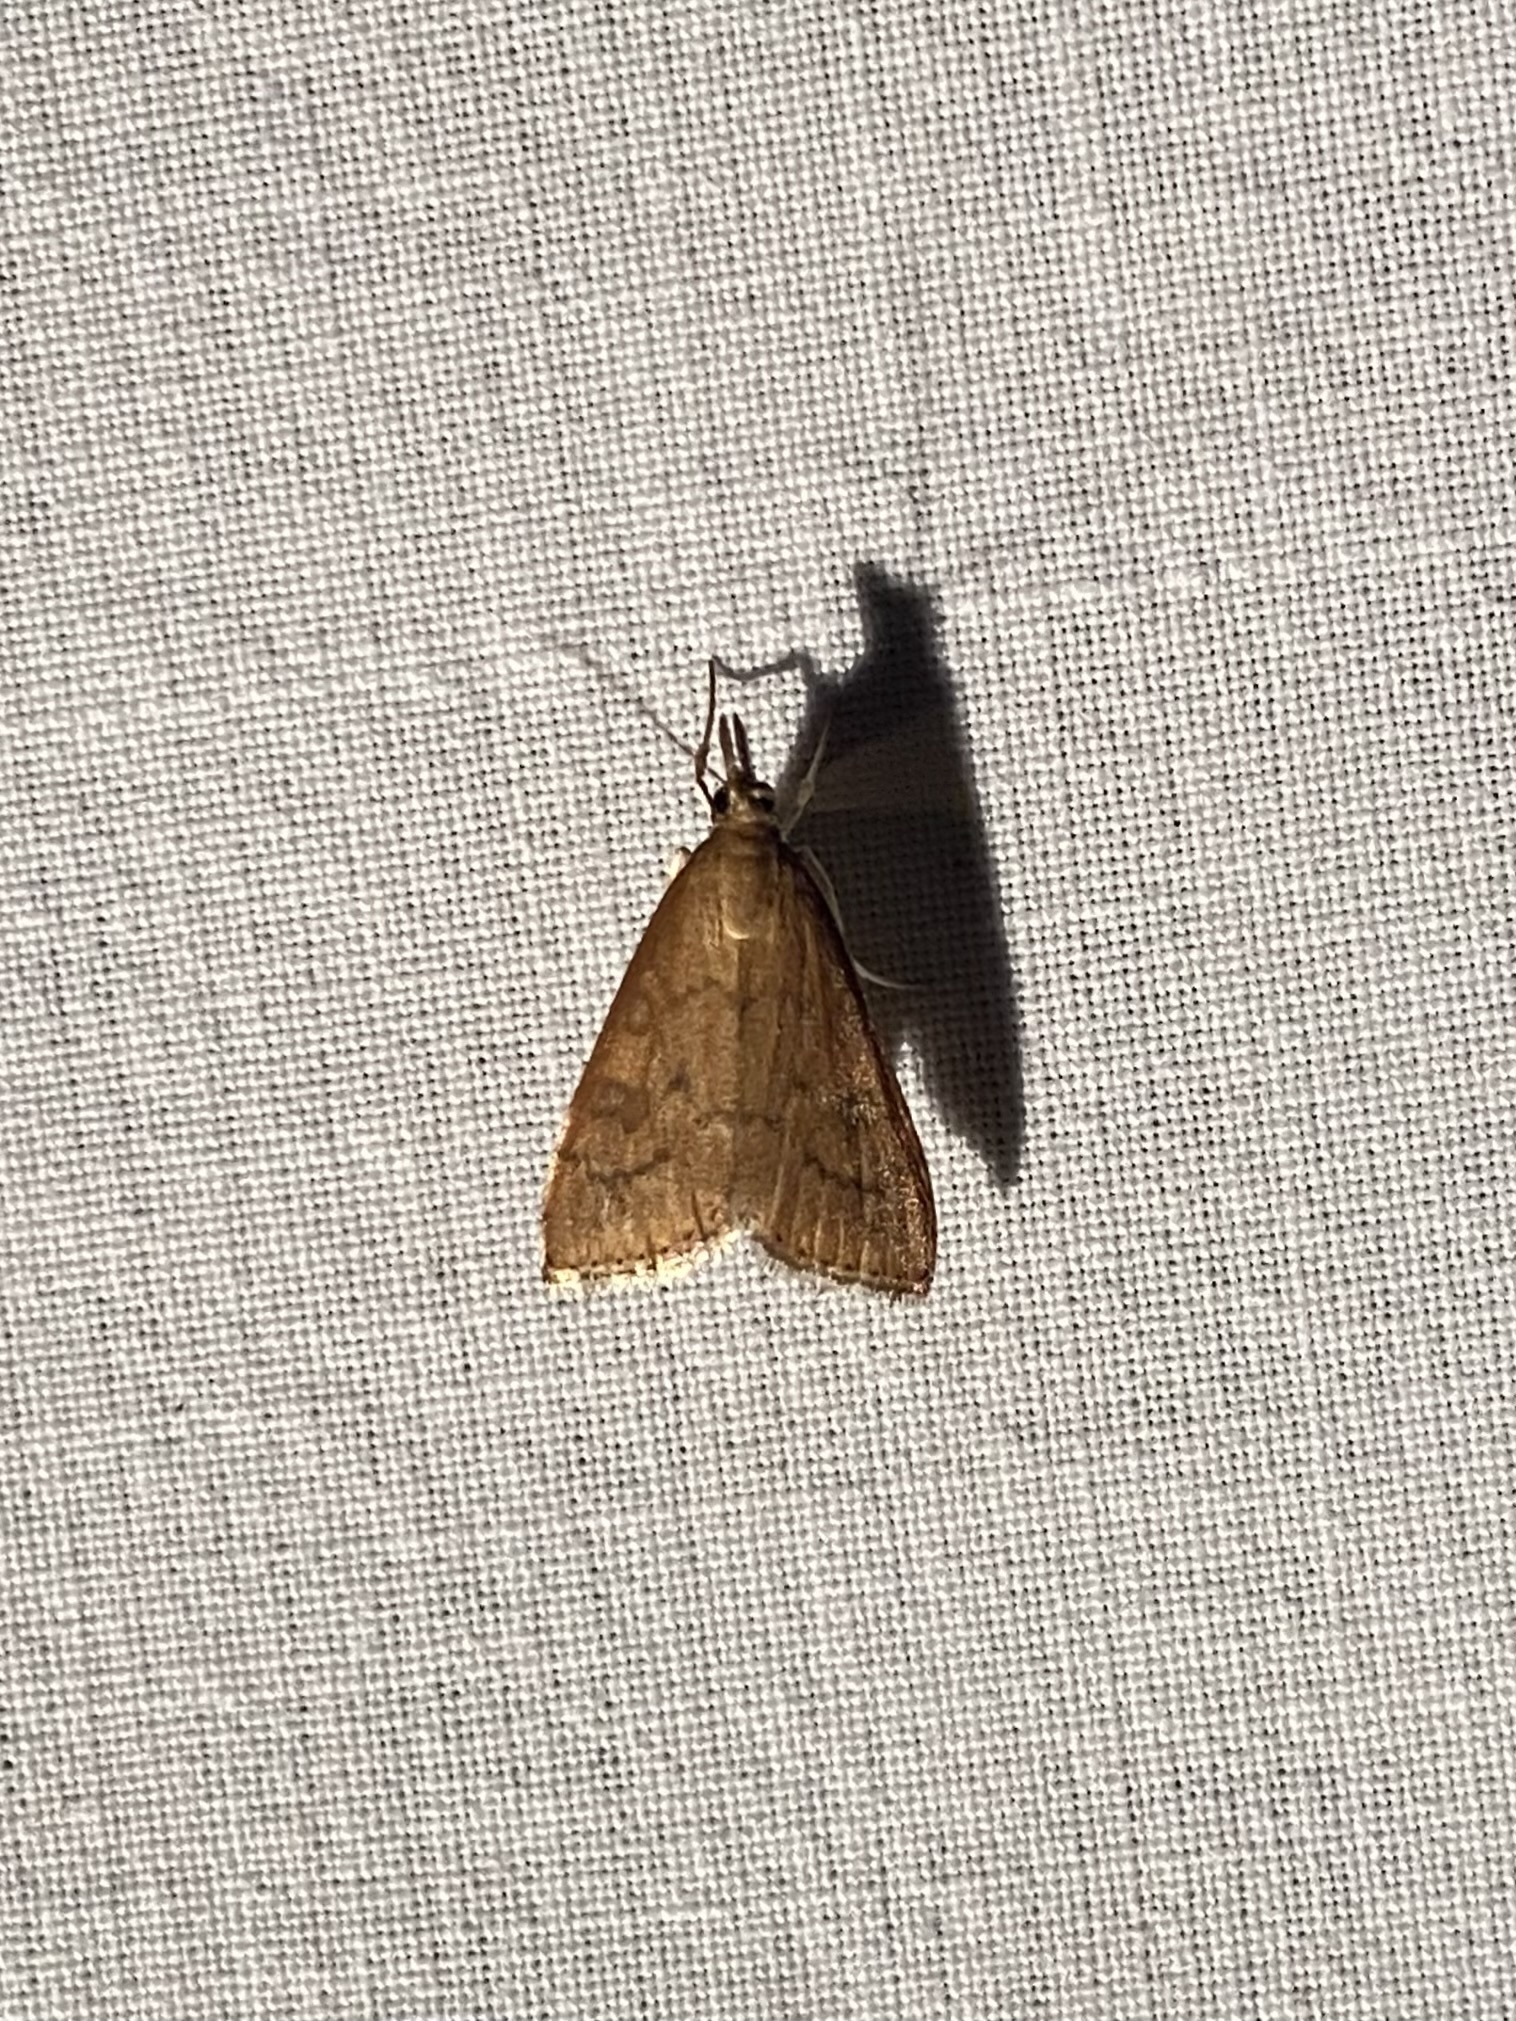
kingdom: Animalia
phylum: Arthropoda
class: Insecta
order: Lepidoptera
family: Crambidae
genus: Udea
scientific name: Udea rubigalis
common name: Celery leaftier moth
